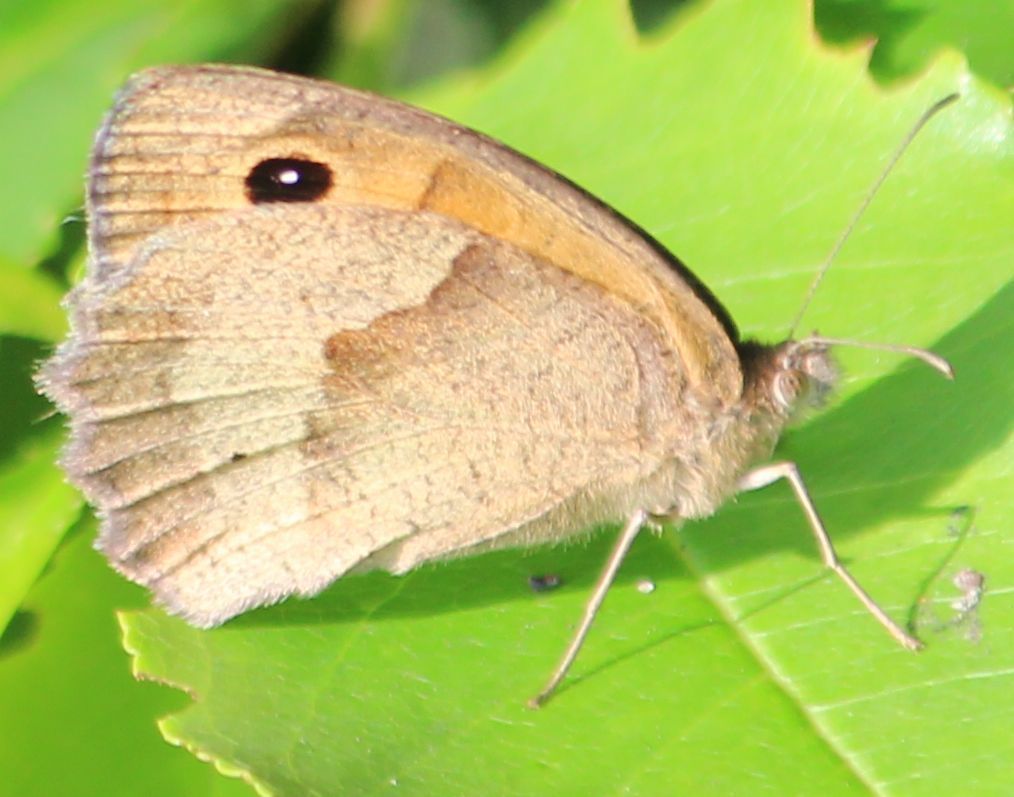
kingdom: Animalia
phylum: Arthropoda
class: Insecta
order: Lepidoptera
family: Nymphalidae
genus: Maniola
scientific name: Maniola jurtina
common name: Meadow brown
